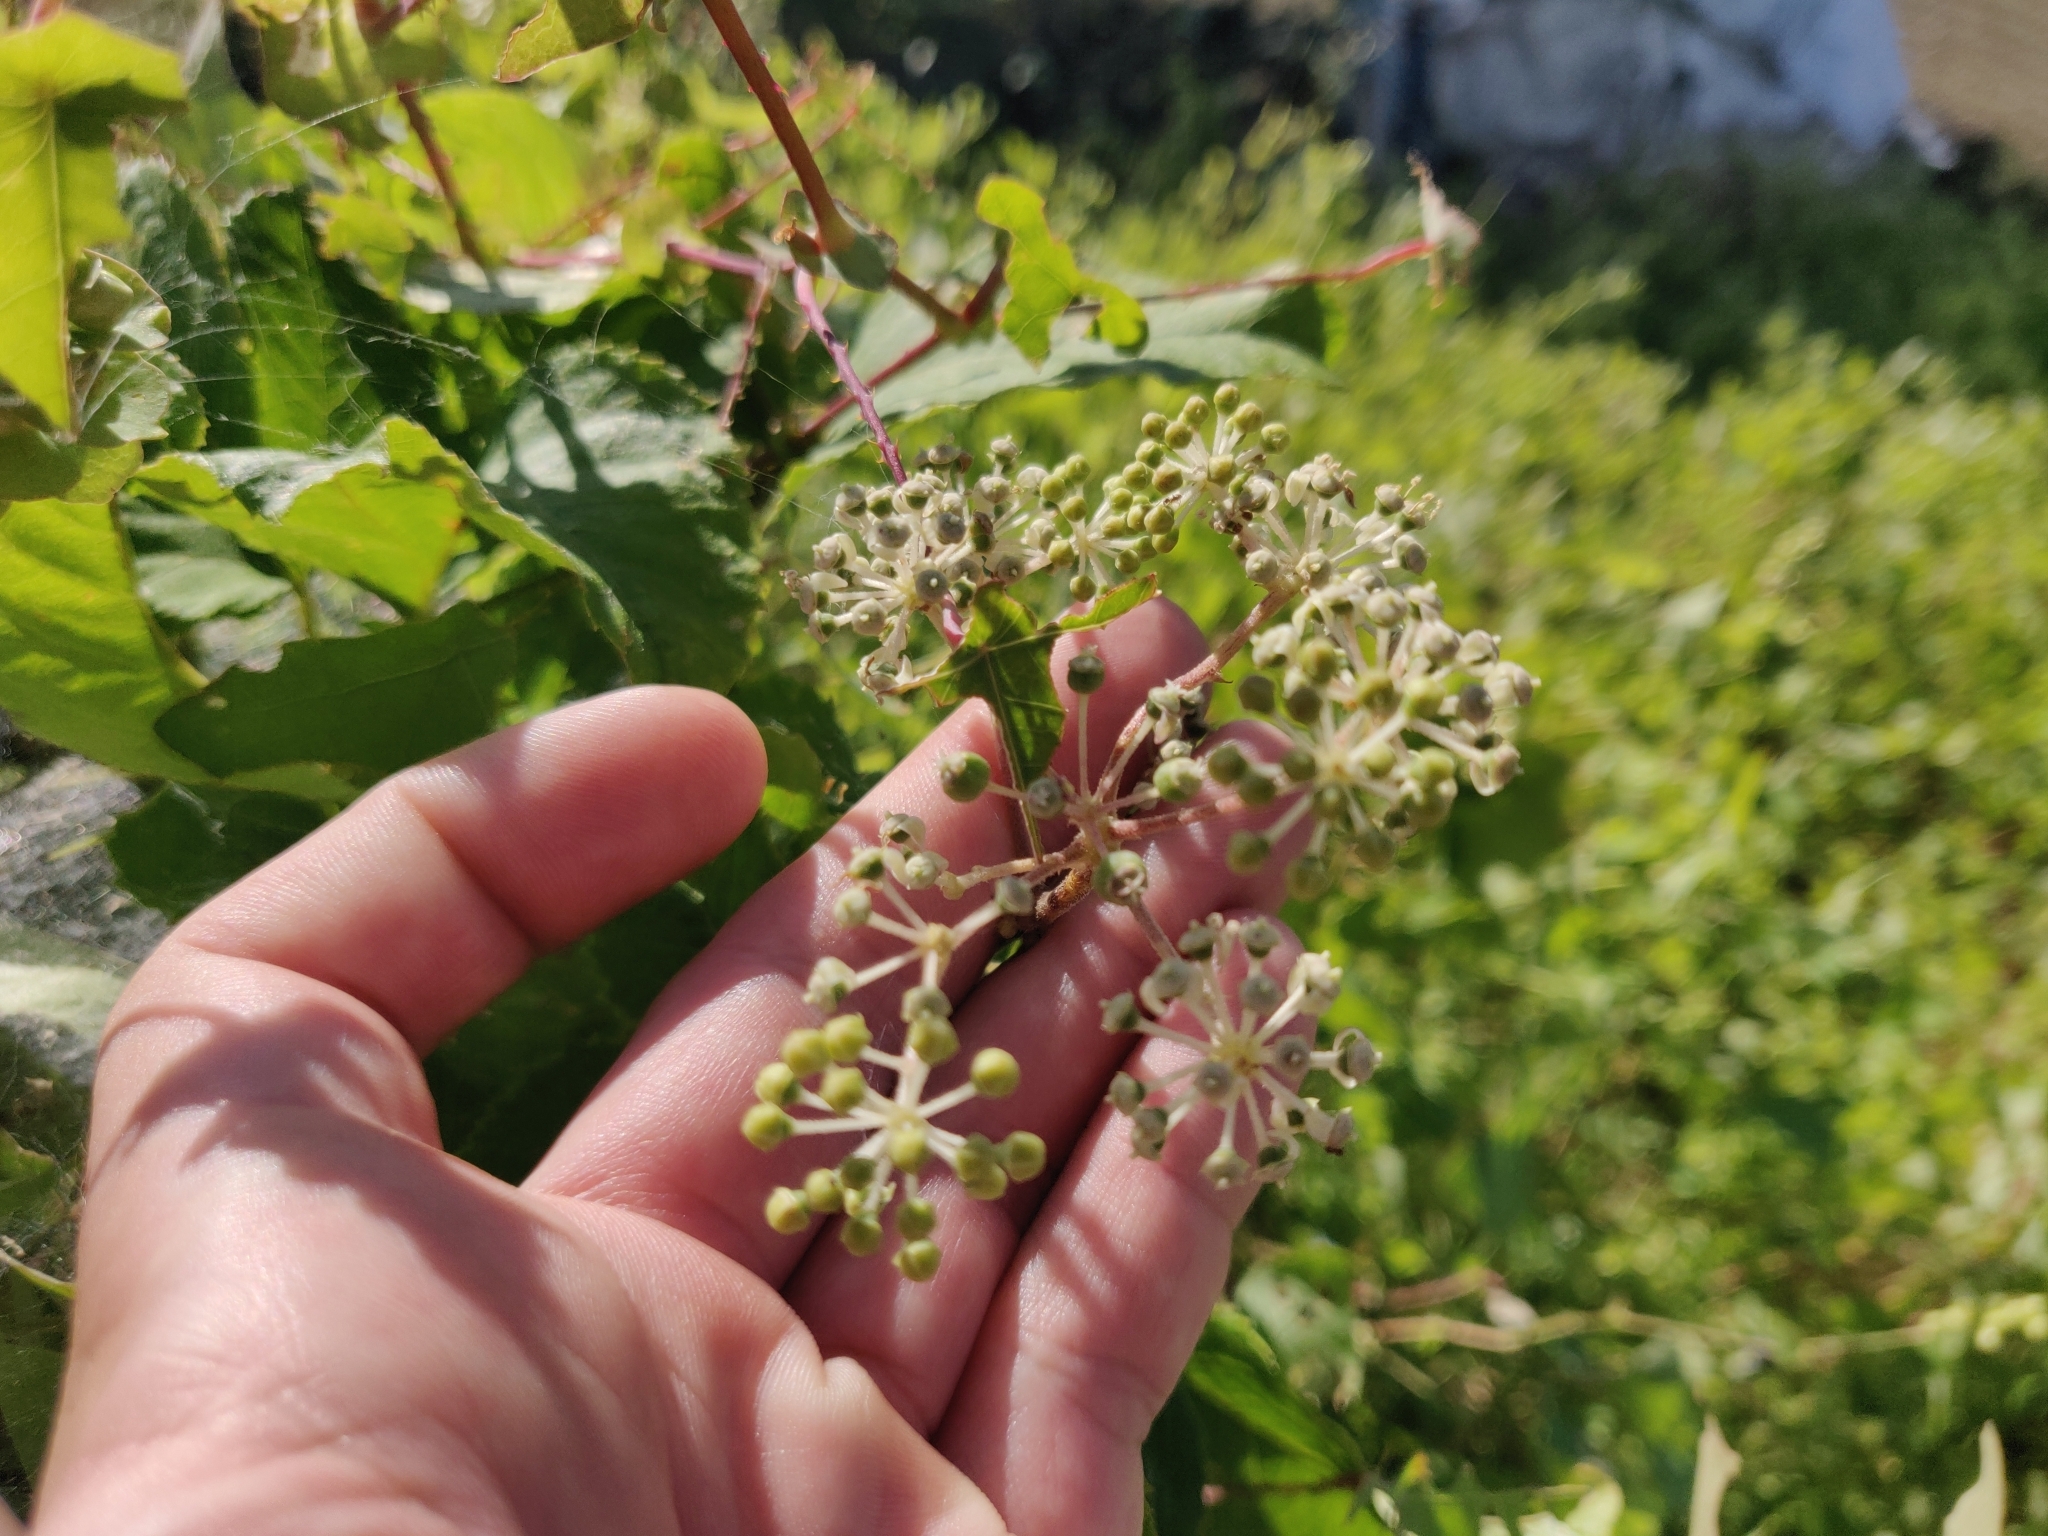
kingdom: Plantae
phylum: Tracheophyta
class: Magnoliopsida
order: Caryophyllales
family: Polygonaceae
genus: Persicaria
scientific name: Persicaria perfoliata
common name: Asiatic tearthumb
